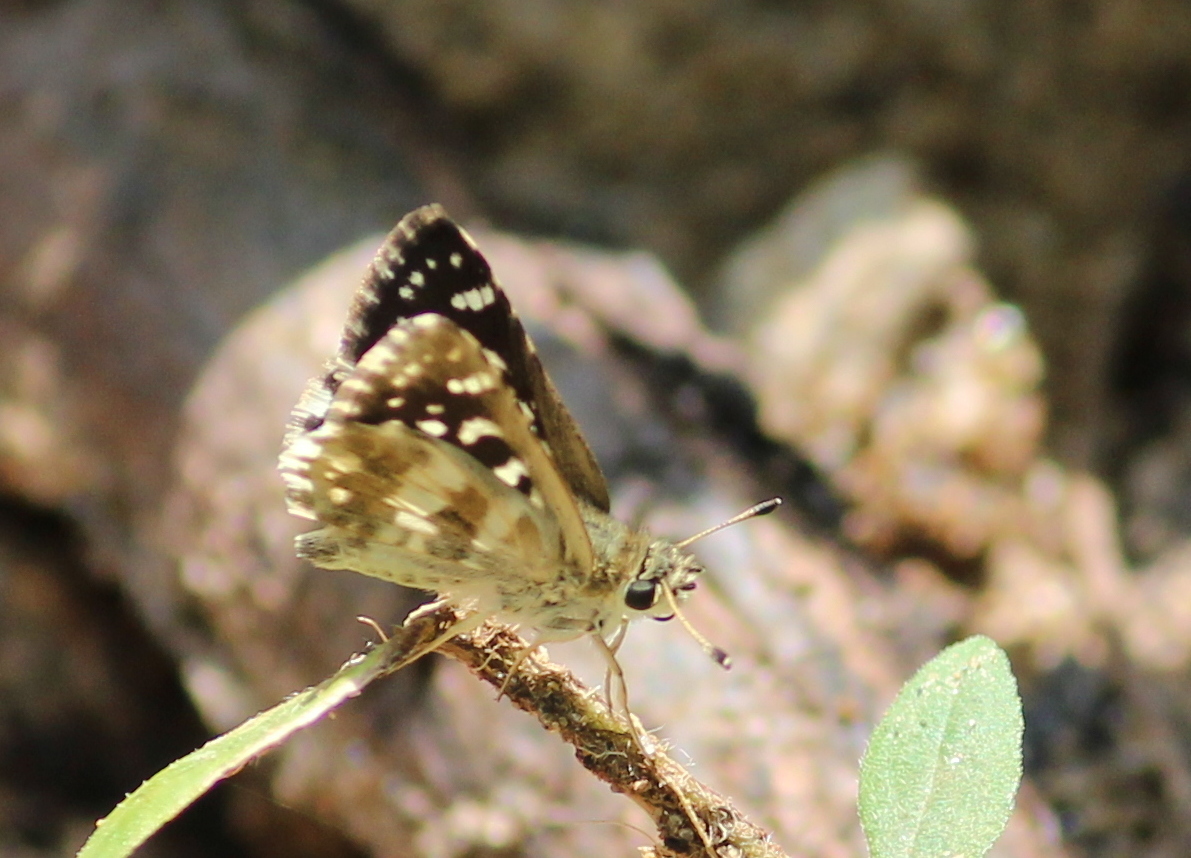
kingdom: Animalia
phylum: Arthropoda
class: Insecta
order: Lepidoptera
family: Hesperiidae
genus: Spialia
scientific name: Spialia galba
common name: Indian skipper
